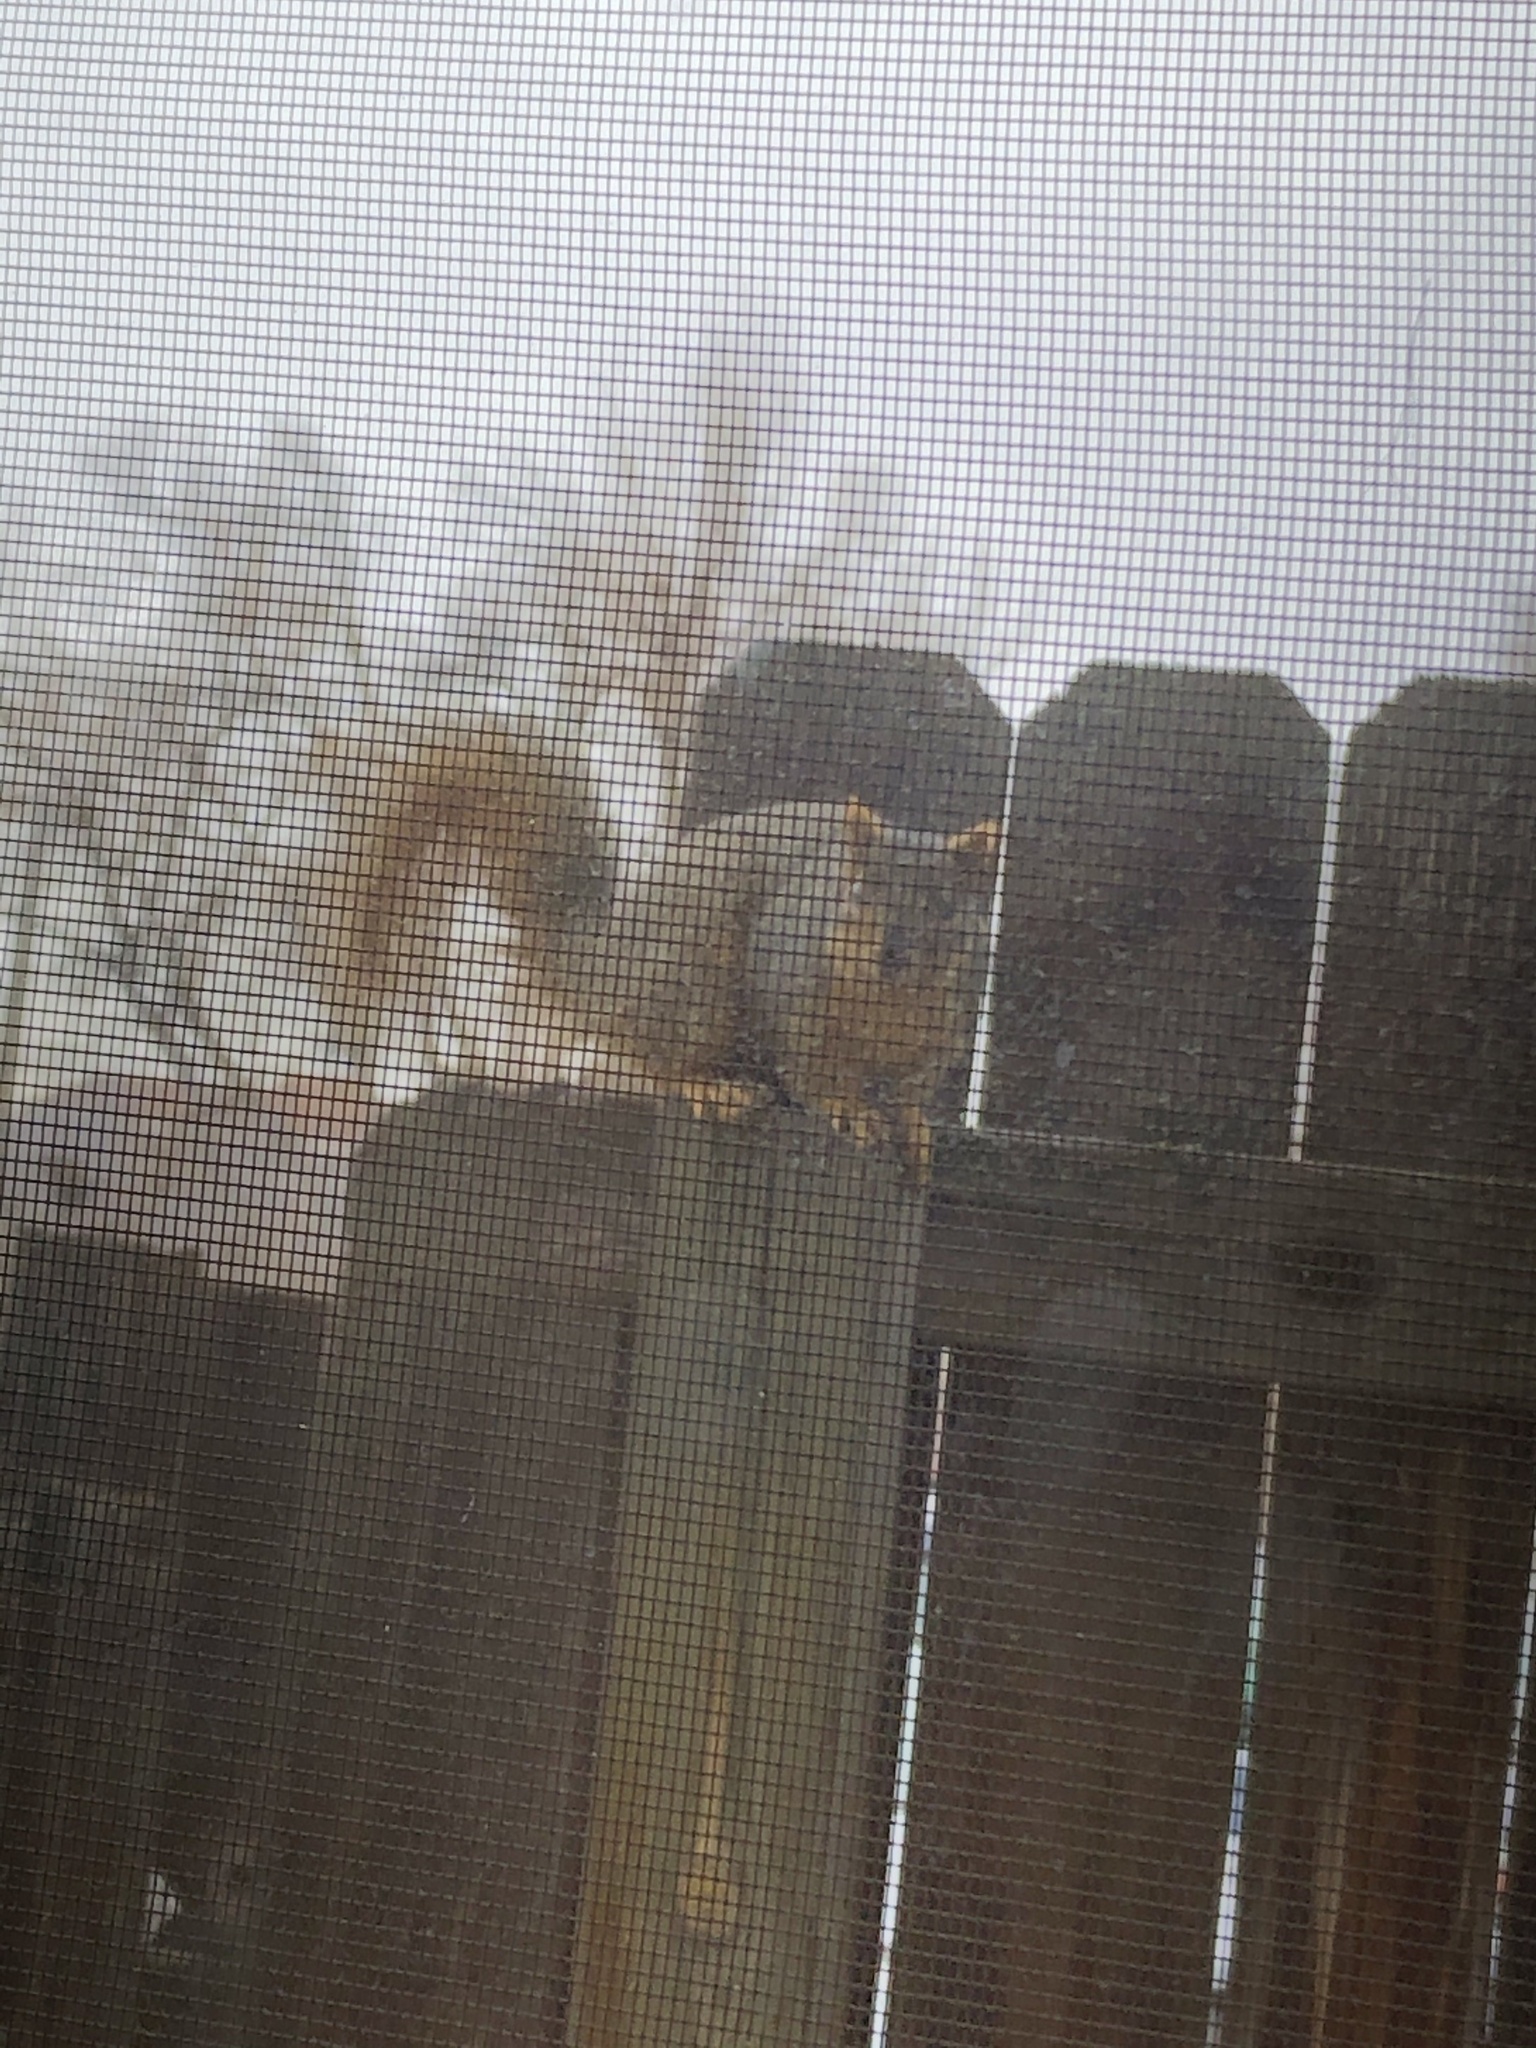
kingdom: Animalia
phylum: Chordata
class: Mammalia
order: Rodentia
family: Sciuridae
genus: Sciurus
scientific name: Sciurus niger
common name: Fox squirrel
